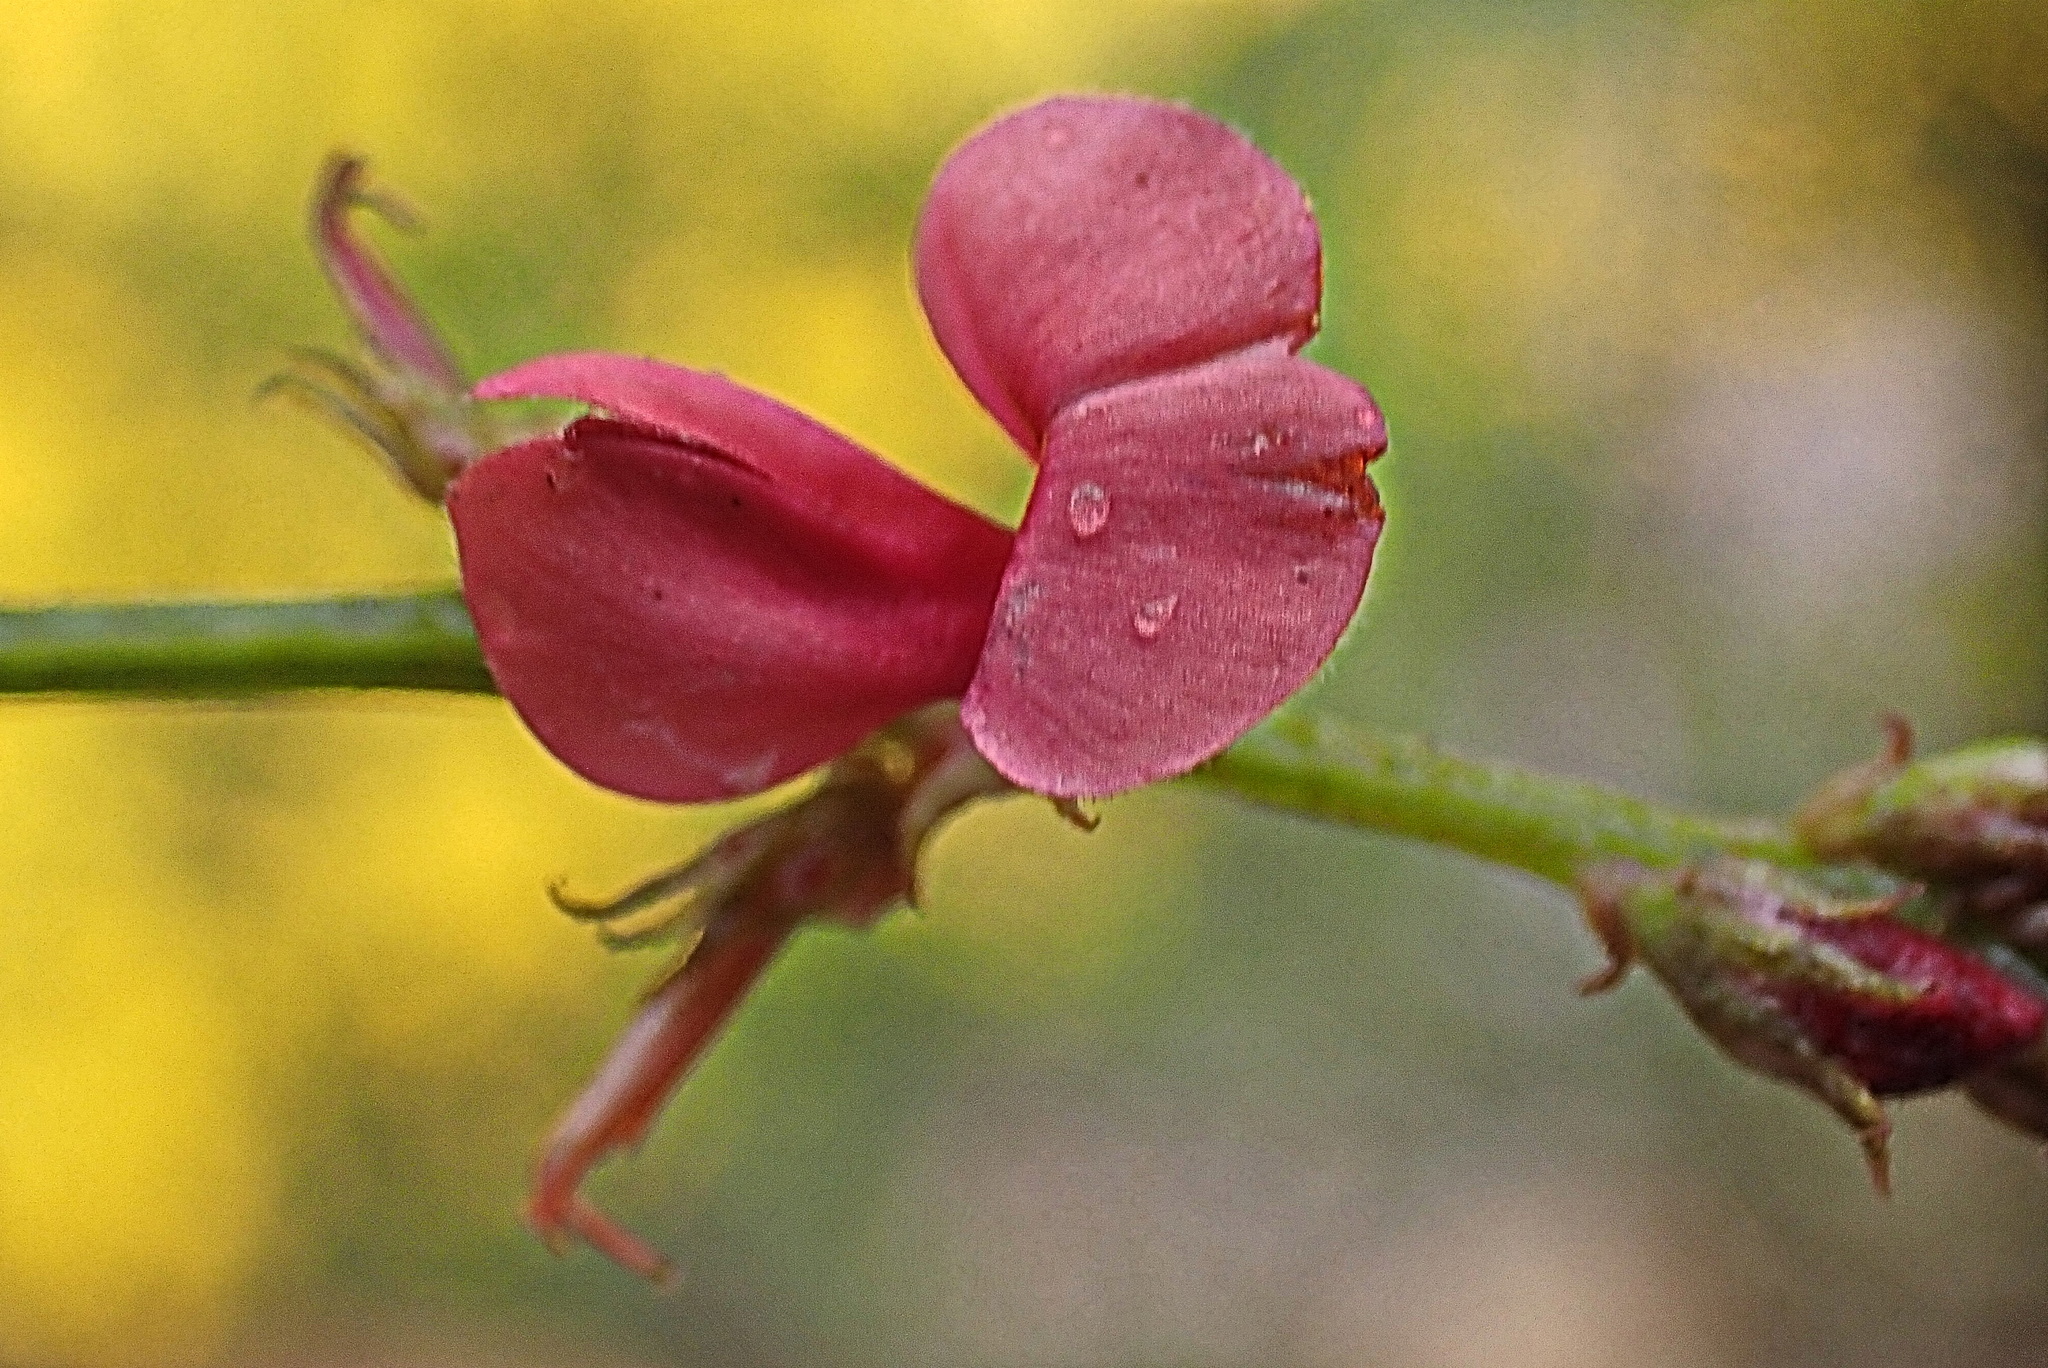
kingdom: Plantae
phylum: Tracheophyta
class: Magnoliopsida
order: Fabales
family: Fabaceae
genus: Indigofera
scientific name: Indigofera heterophylla
